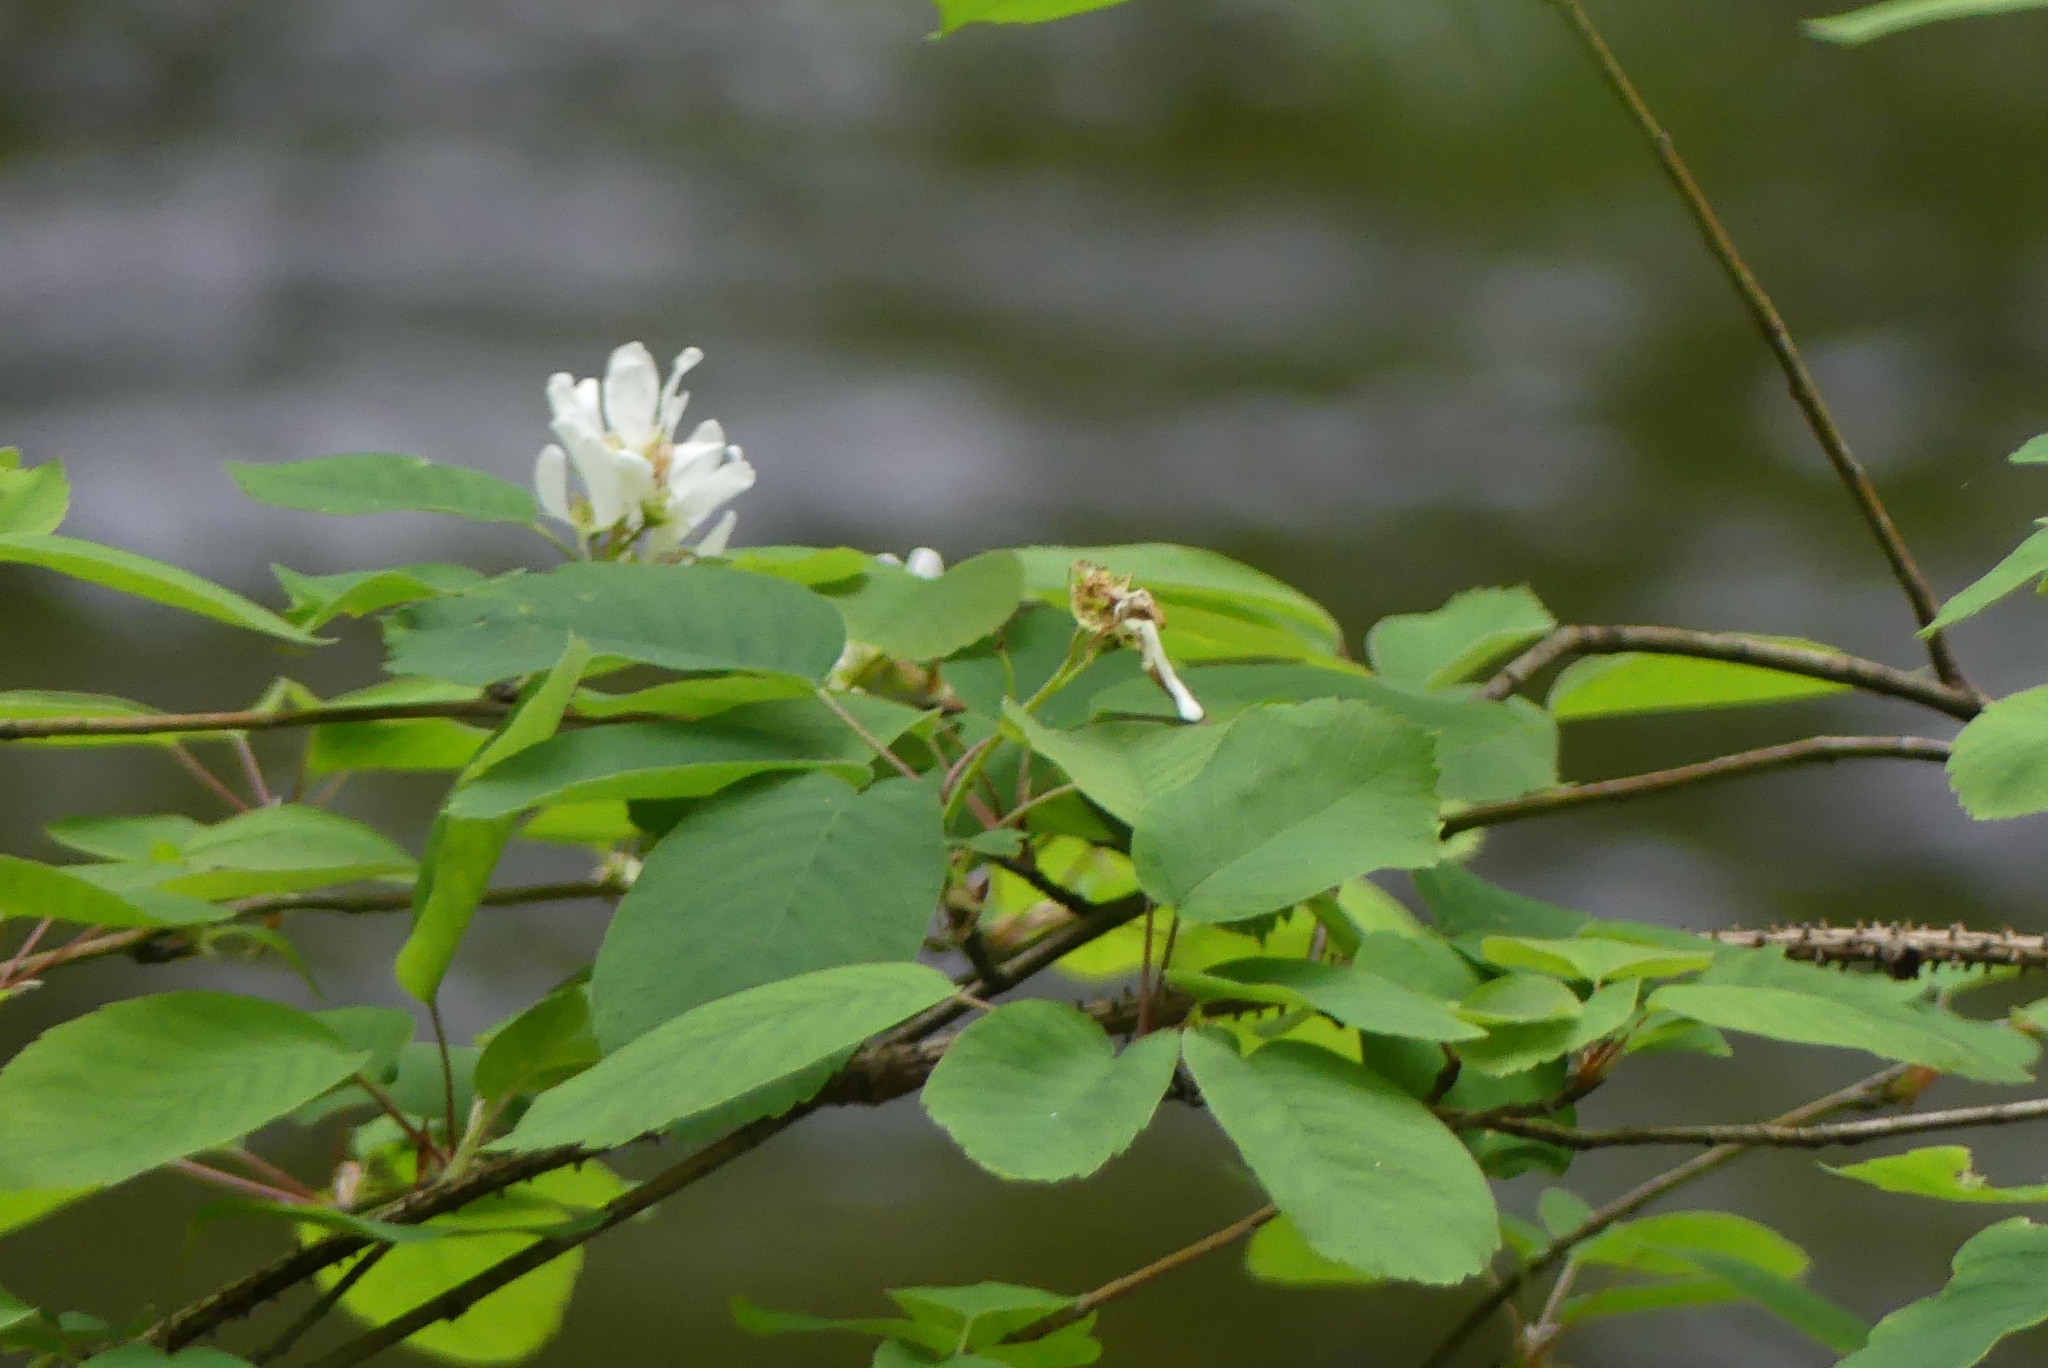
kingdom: Plantae
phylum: Tracheophyta
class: Magnoliopsida
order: Rosales
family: Rosaceae
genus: Amelanchier
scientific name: Amelanchier alnifolia
